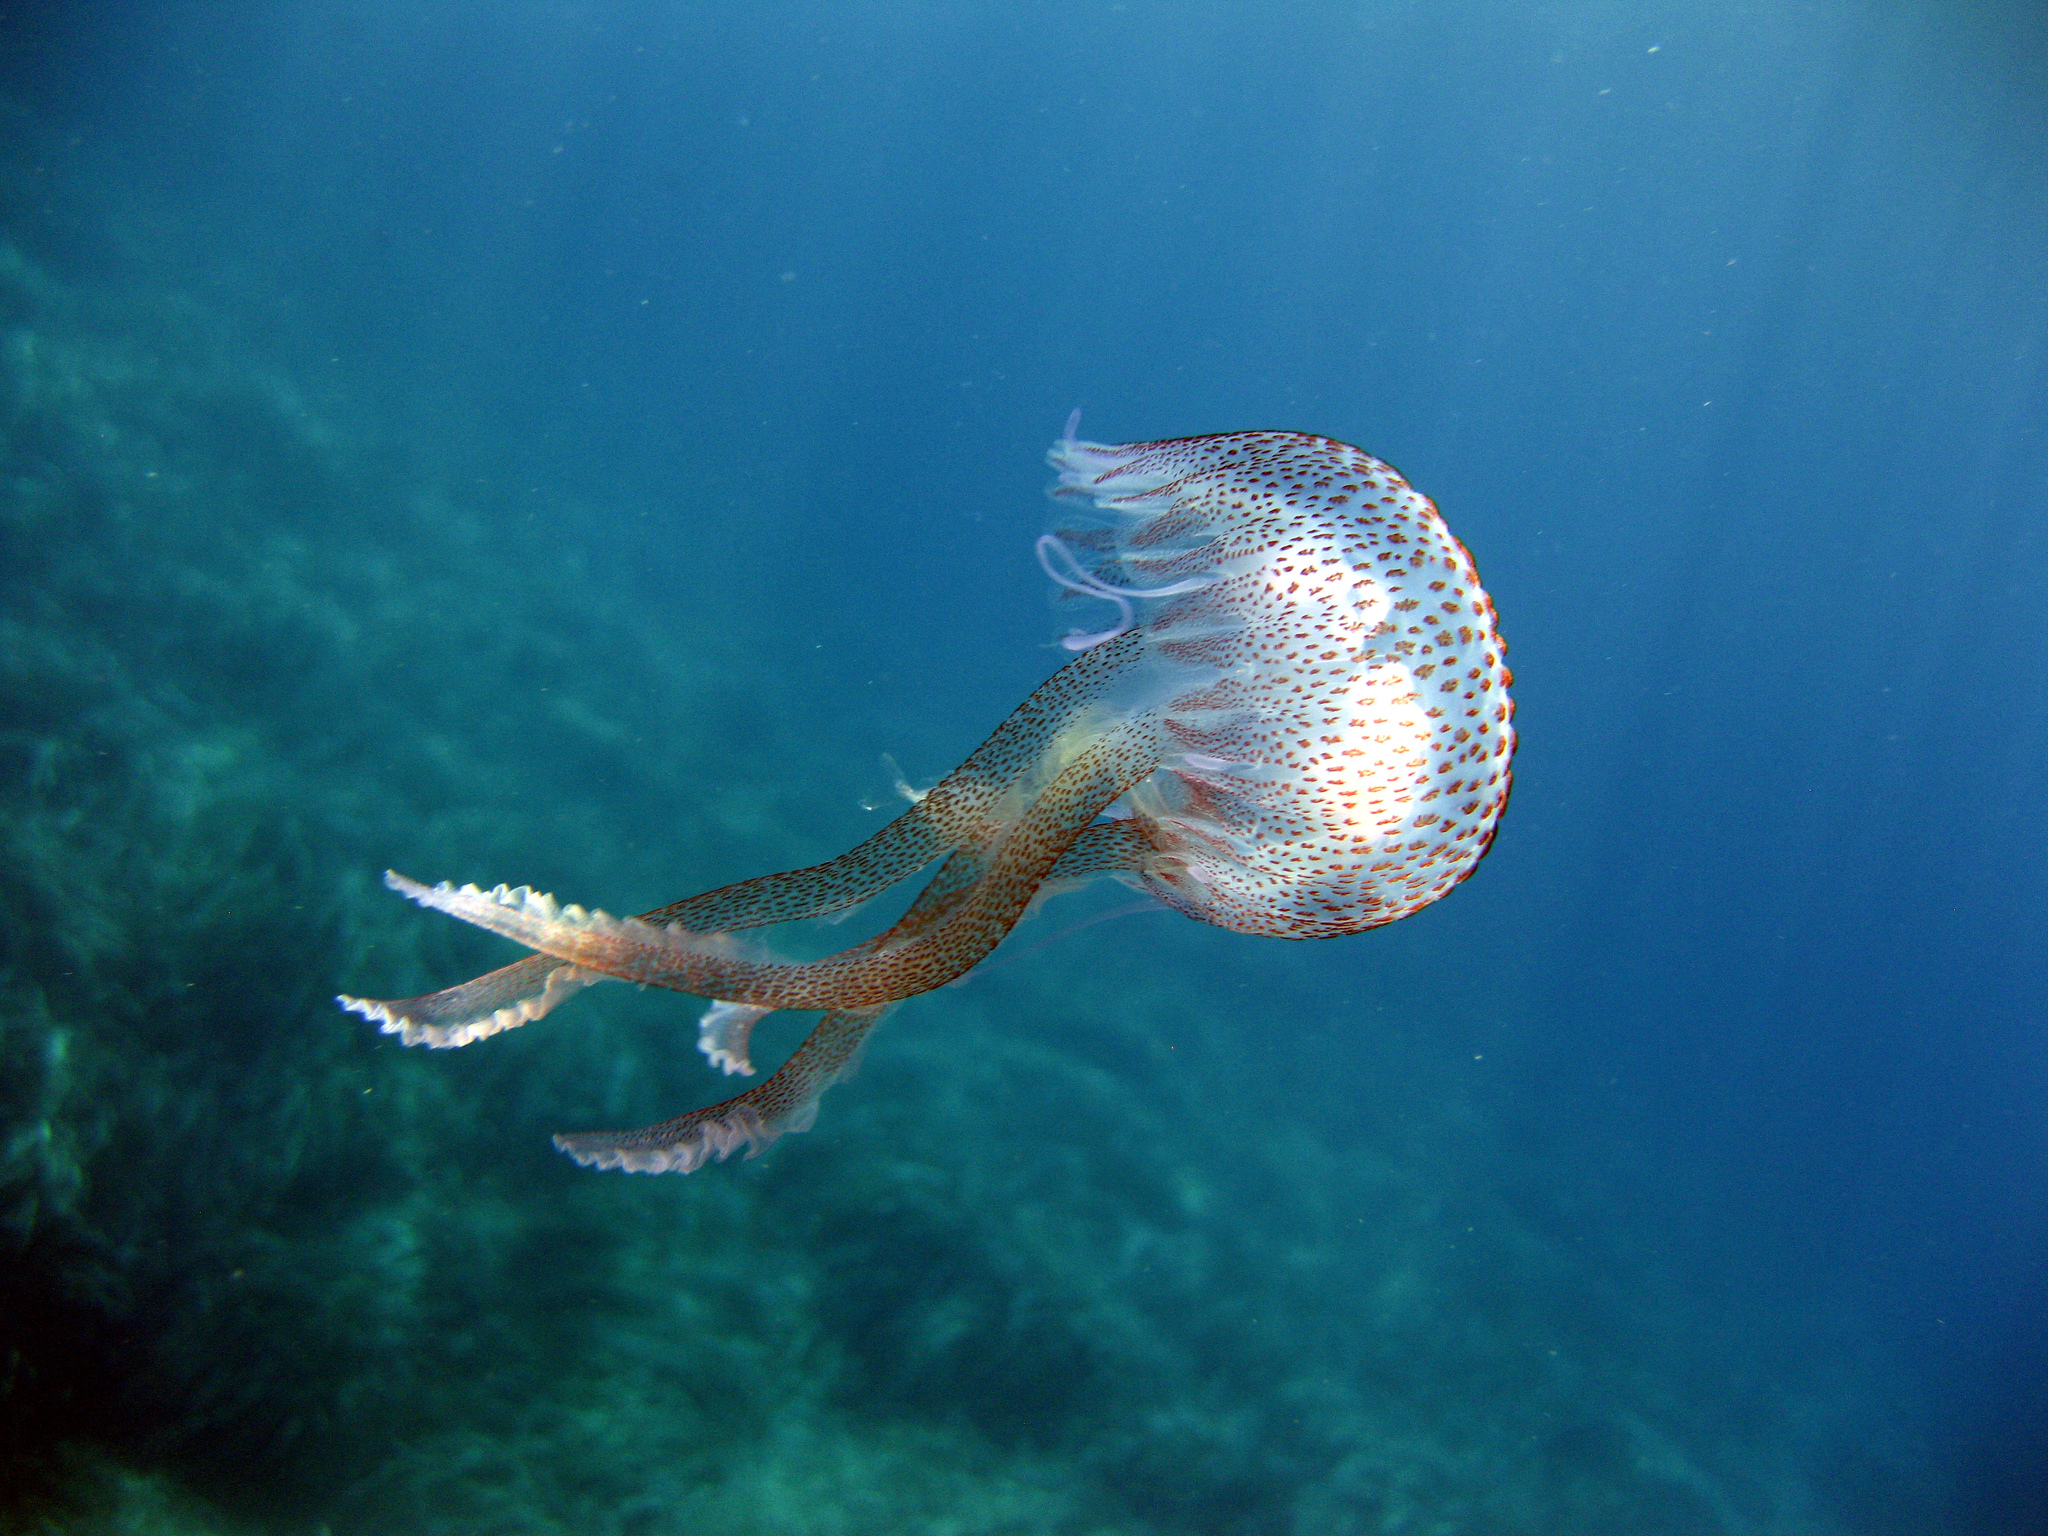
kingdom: Animalia
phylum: Cnidaria
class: Scyphozoa
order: Semaeostomeae
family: Pelagiidae
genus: Pelagia
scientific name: Pelagia noctiluca
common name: Mauve stinger
